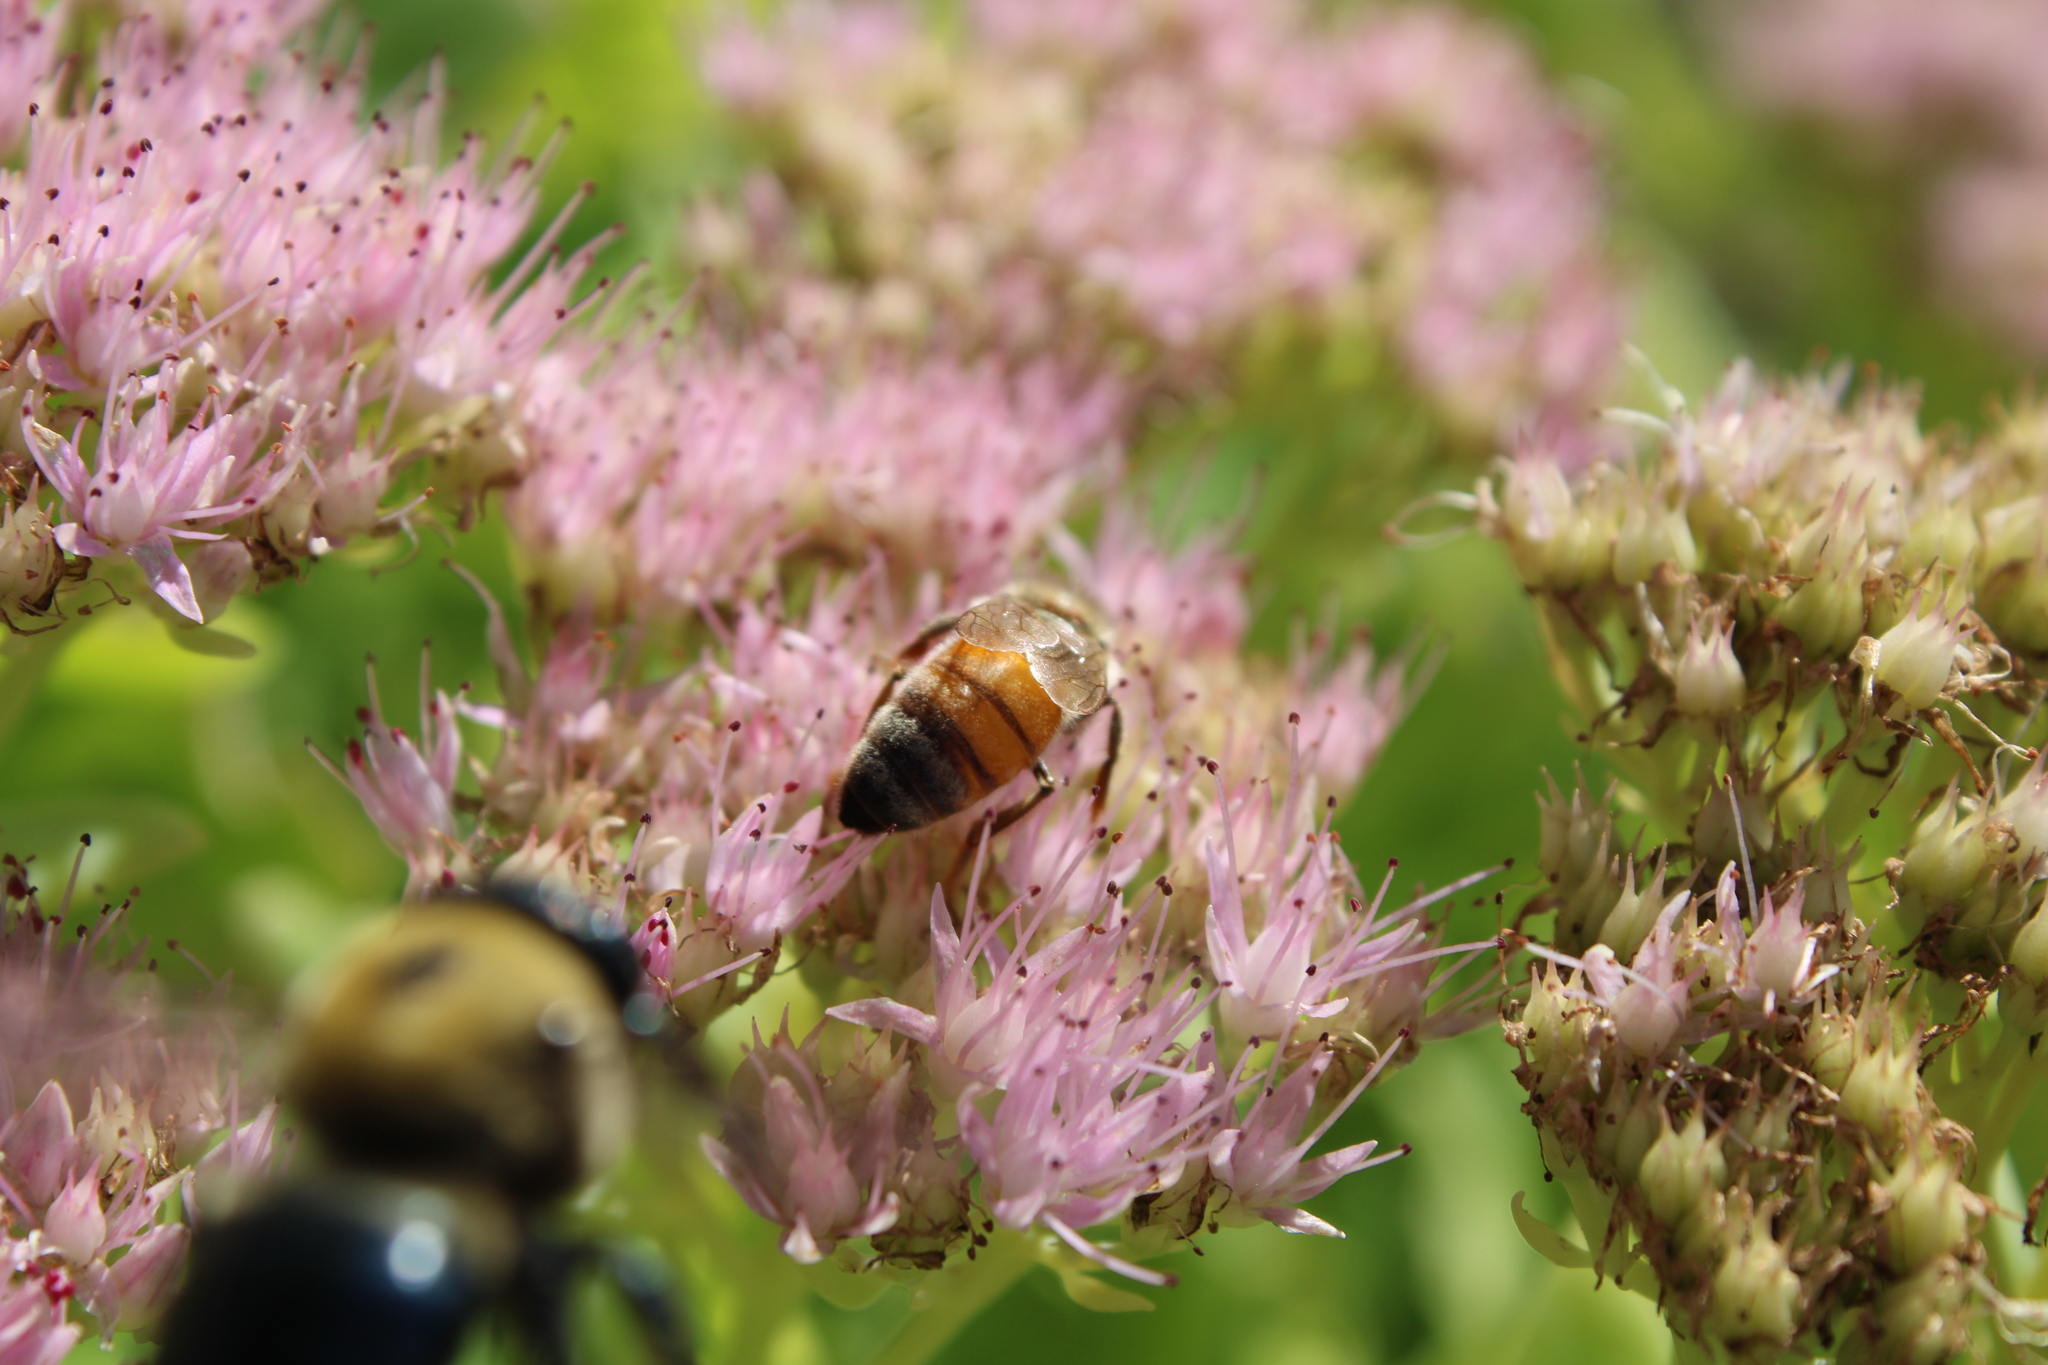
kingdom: Animalia
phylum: Arthropoda
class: Insecta
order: Hymenoptera
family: Apidae
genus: Apis
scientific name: Apis mellifera
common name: Honey bee
